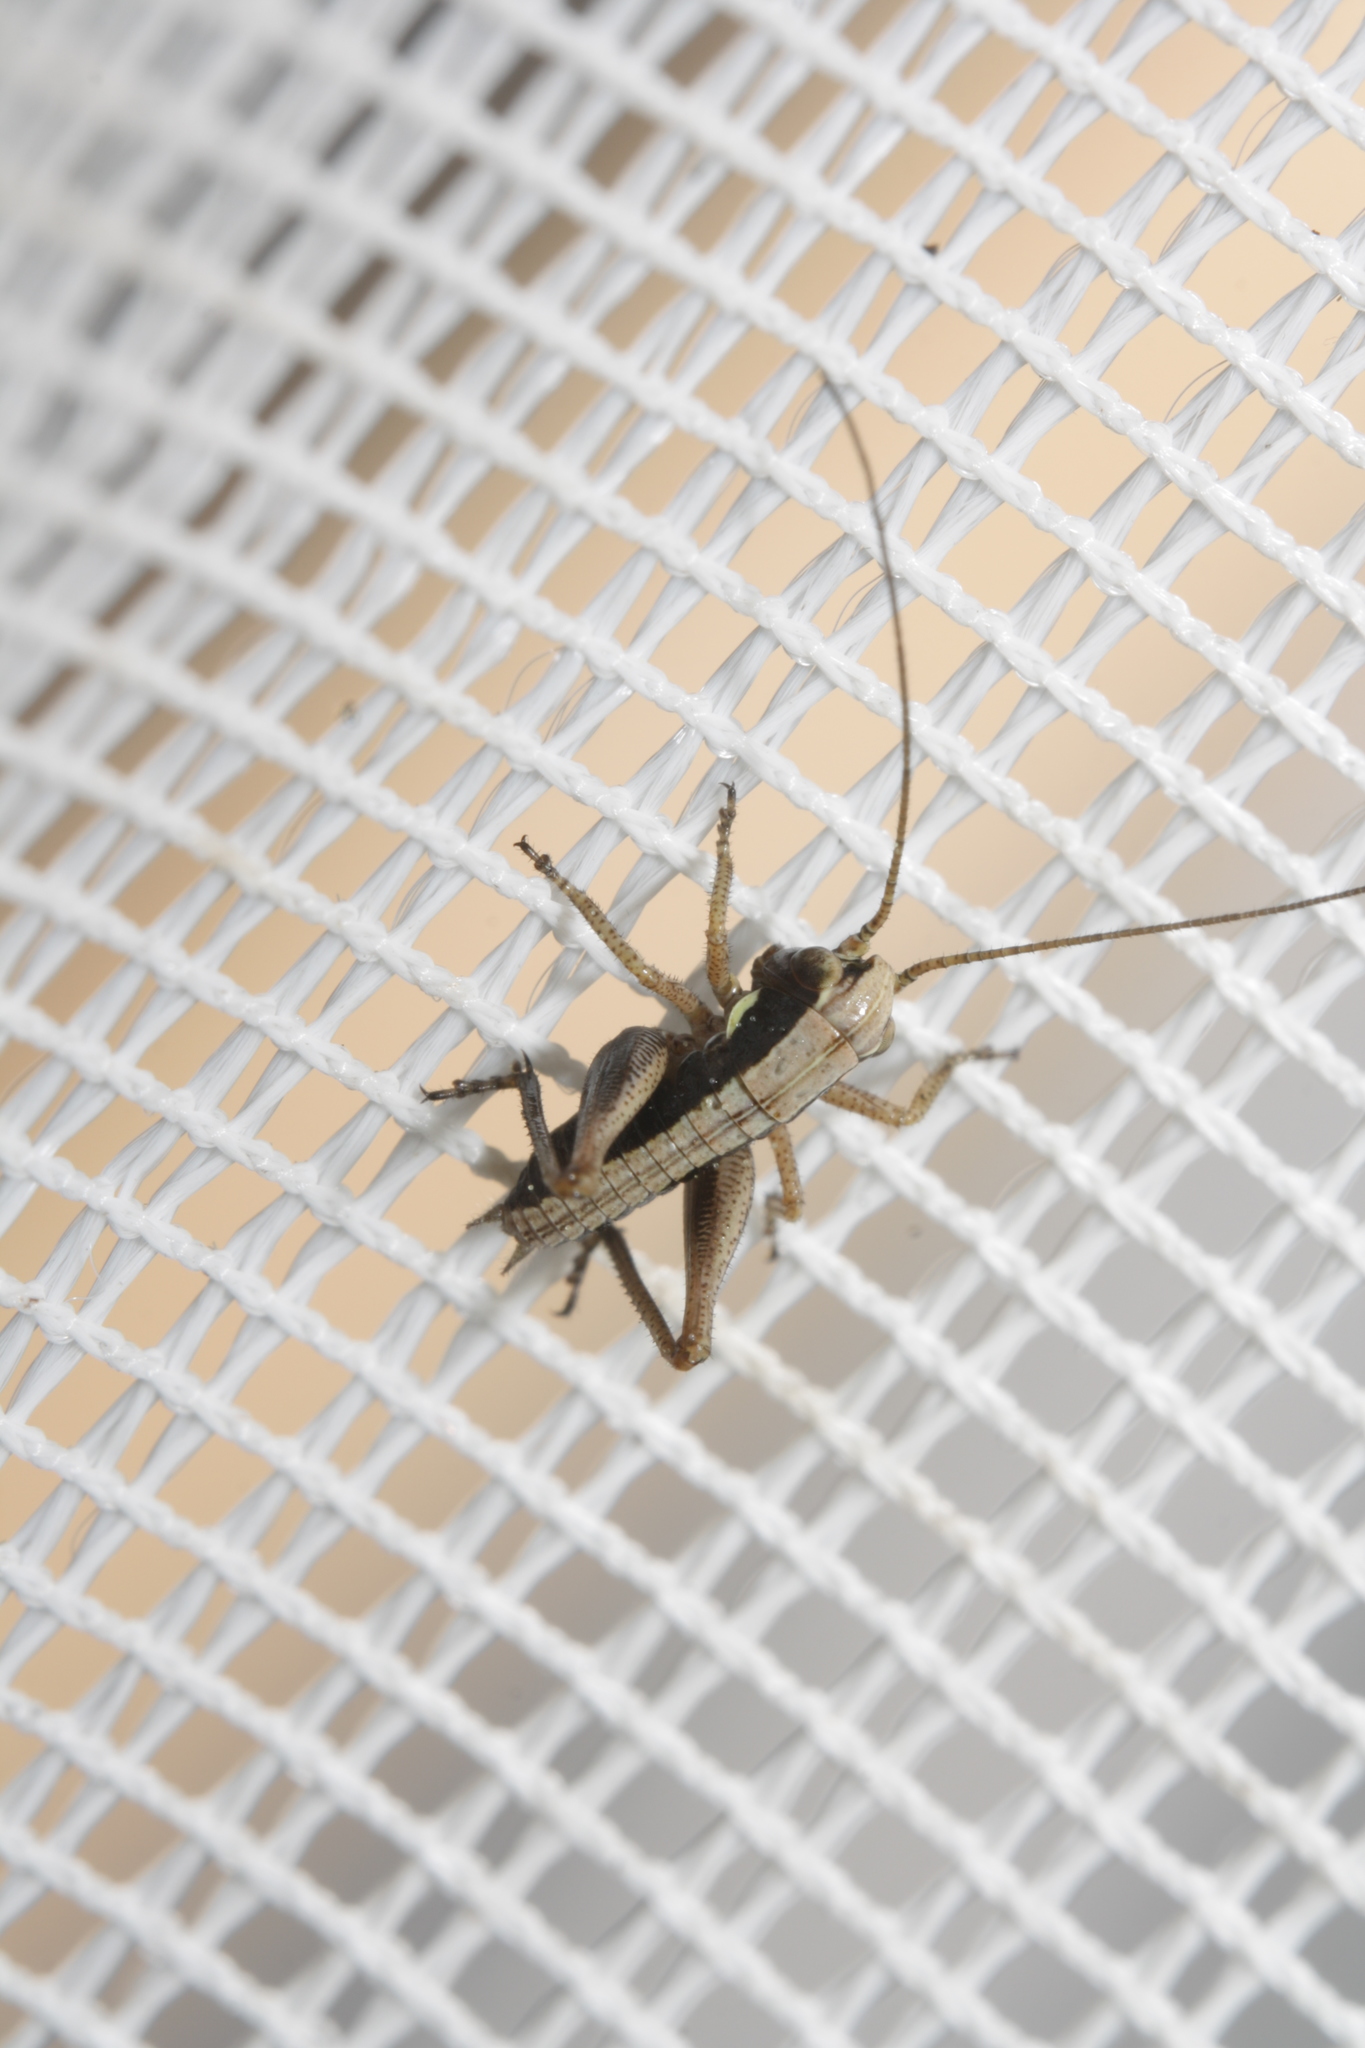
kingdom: Animalia
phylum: Arthropoda
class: Insecta
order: Orthoptera
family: Tettigoniidae
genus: Platycleis
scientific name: Platycleis grisea
